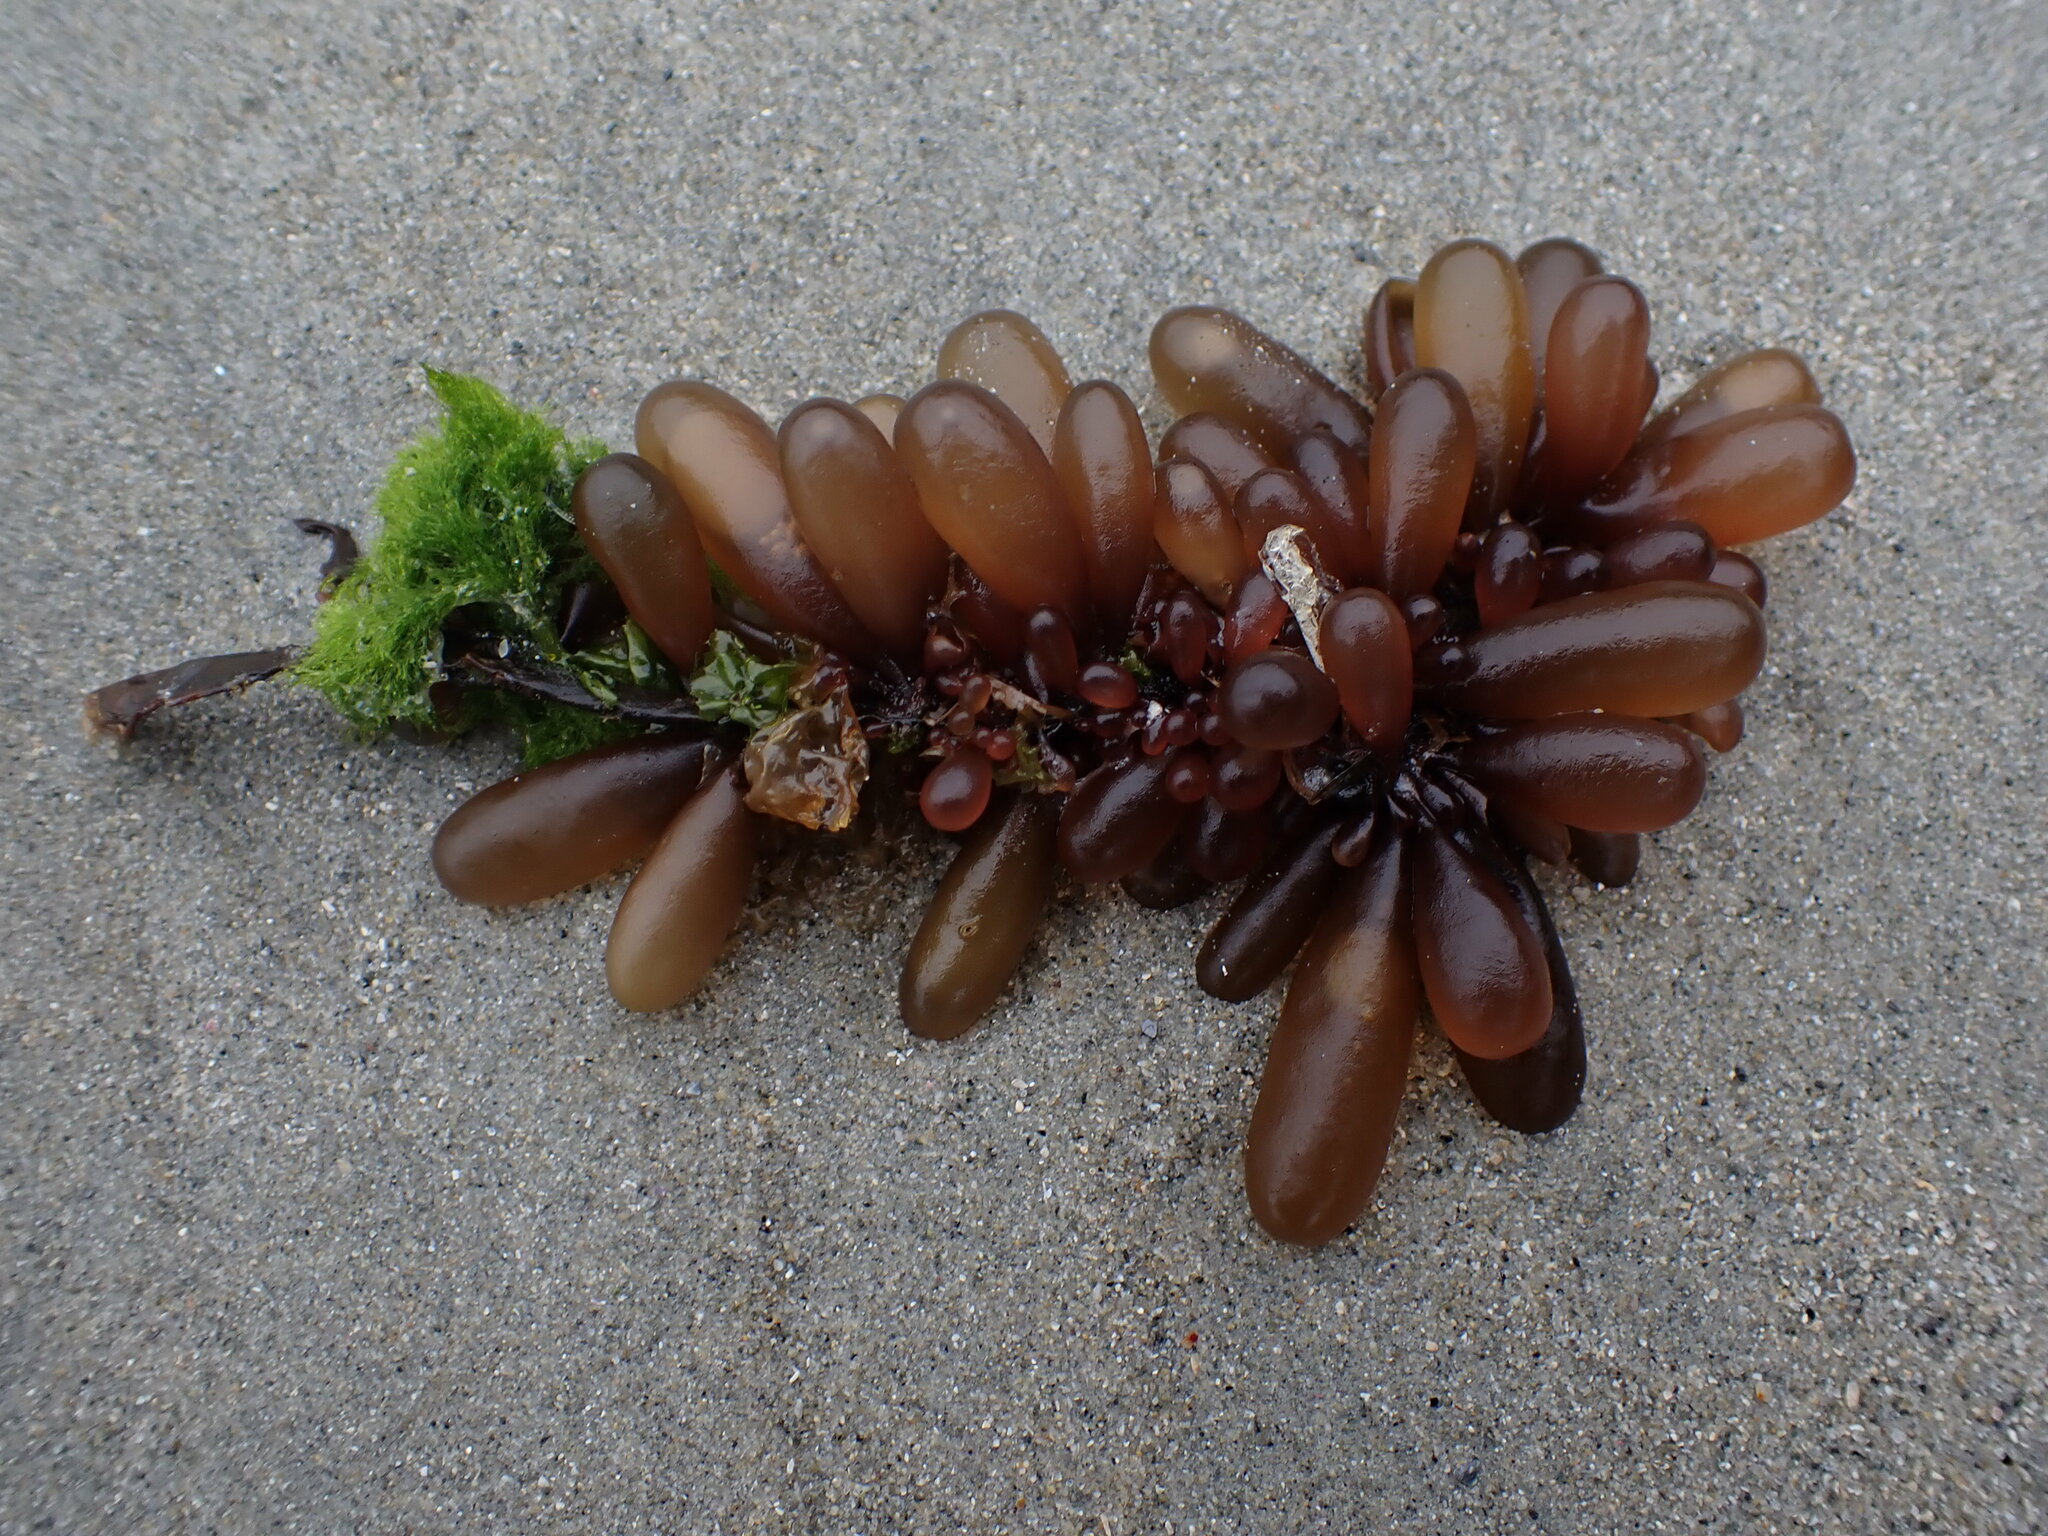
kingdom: Plantae
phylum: Rhodophyta
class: Florideophyceae
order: Palmariales
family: Palmariaceae
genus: Halosaccion
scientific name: Halosaccion glandiforme
